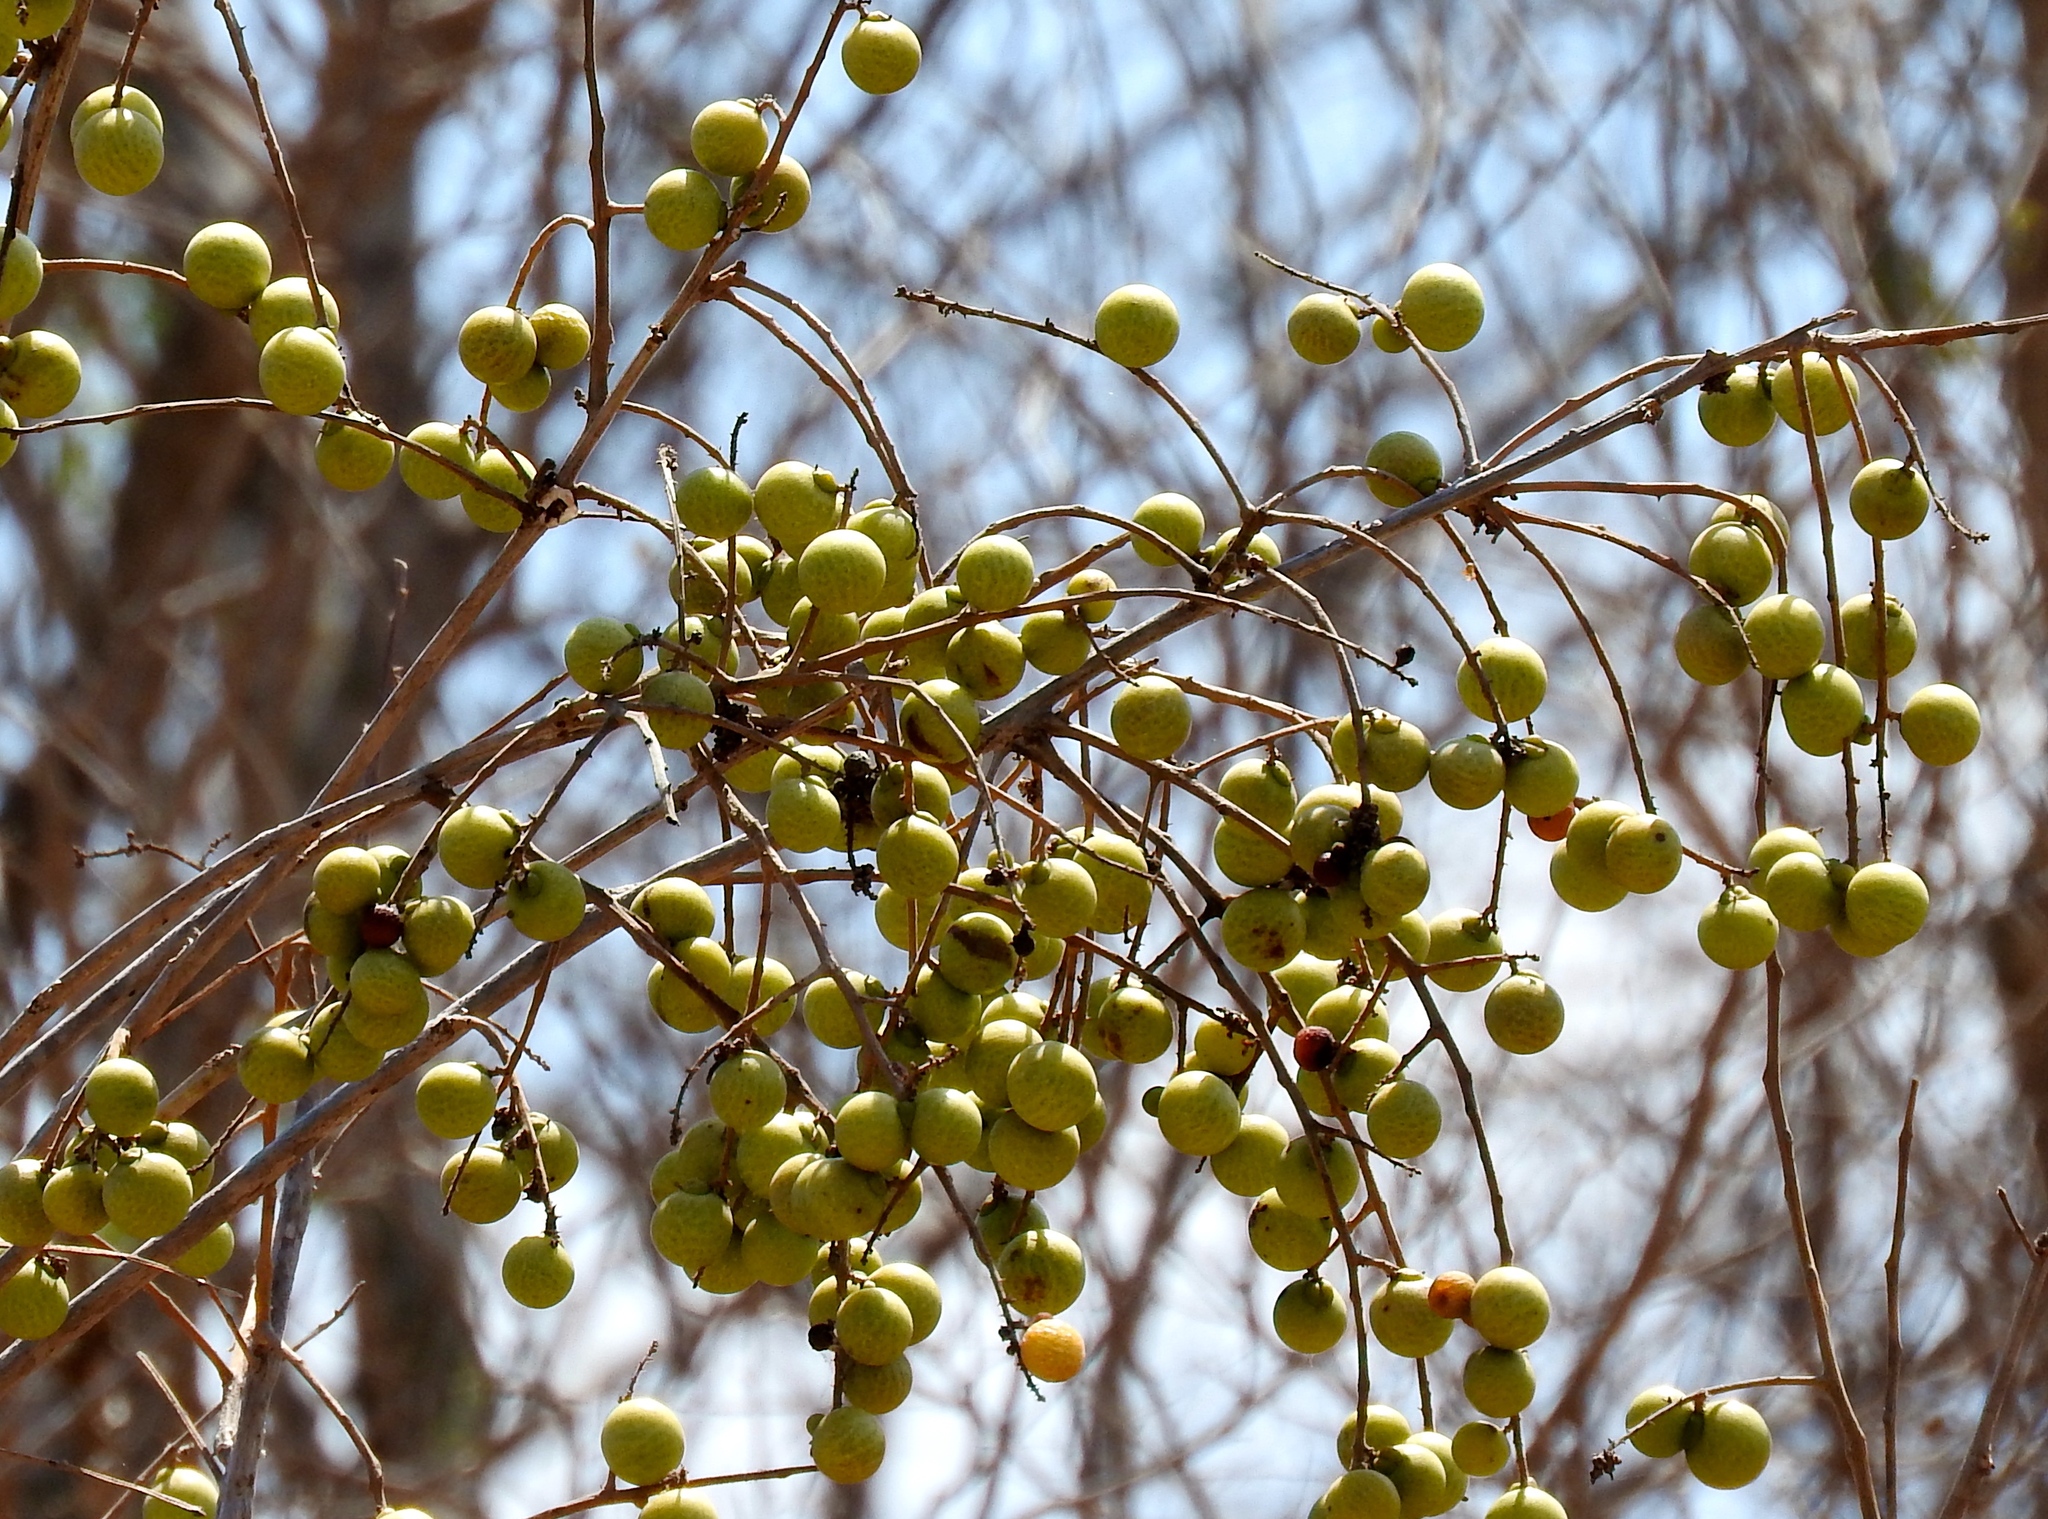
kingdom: Plantae
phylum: Tracheophyta
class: Magnoliopsida
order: Sapindales
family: Sapindaceae
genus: Sapindus
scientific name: Sapindus drummondii
